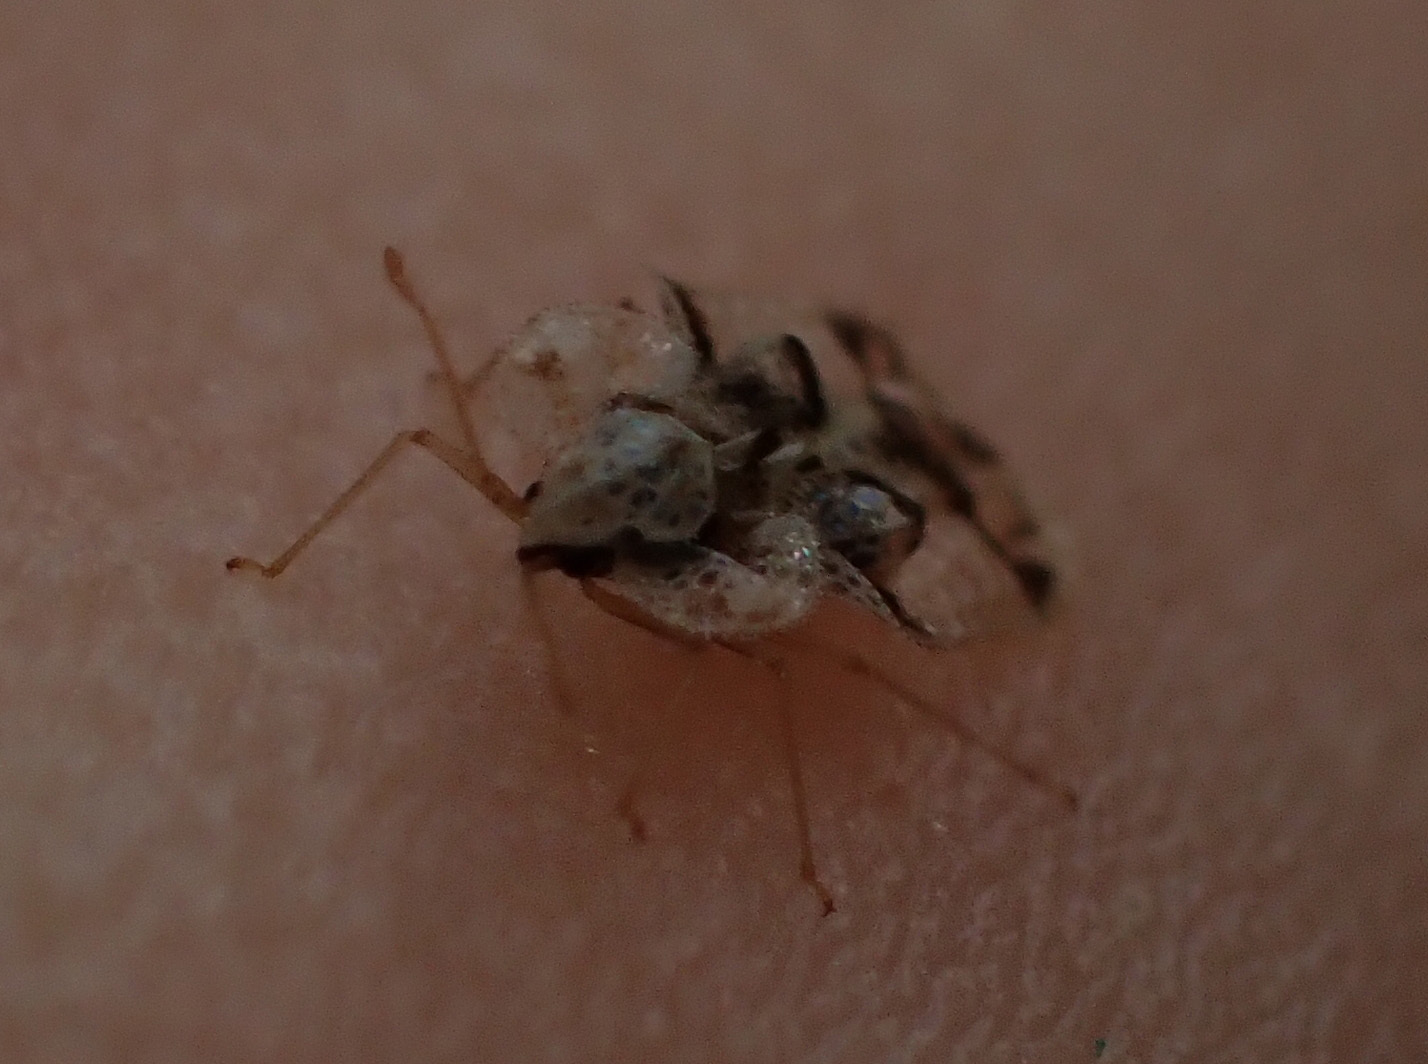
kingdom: Animalia
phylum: Arthropoda
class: Insecta
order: Hemiptera
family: Tingidae
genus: Corythucha
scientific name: Corythucha arcuata
